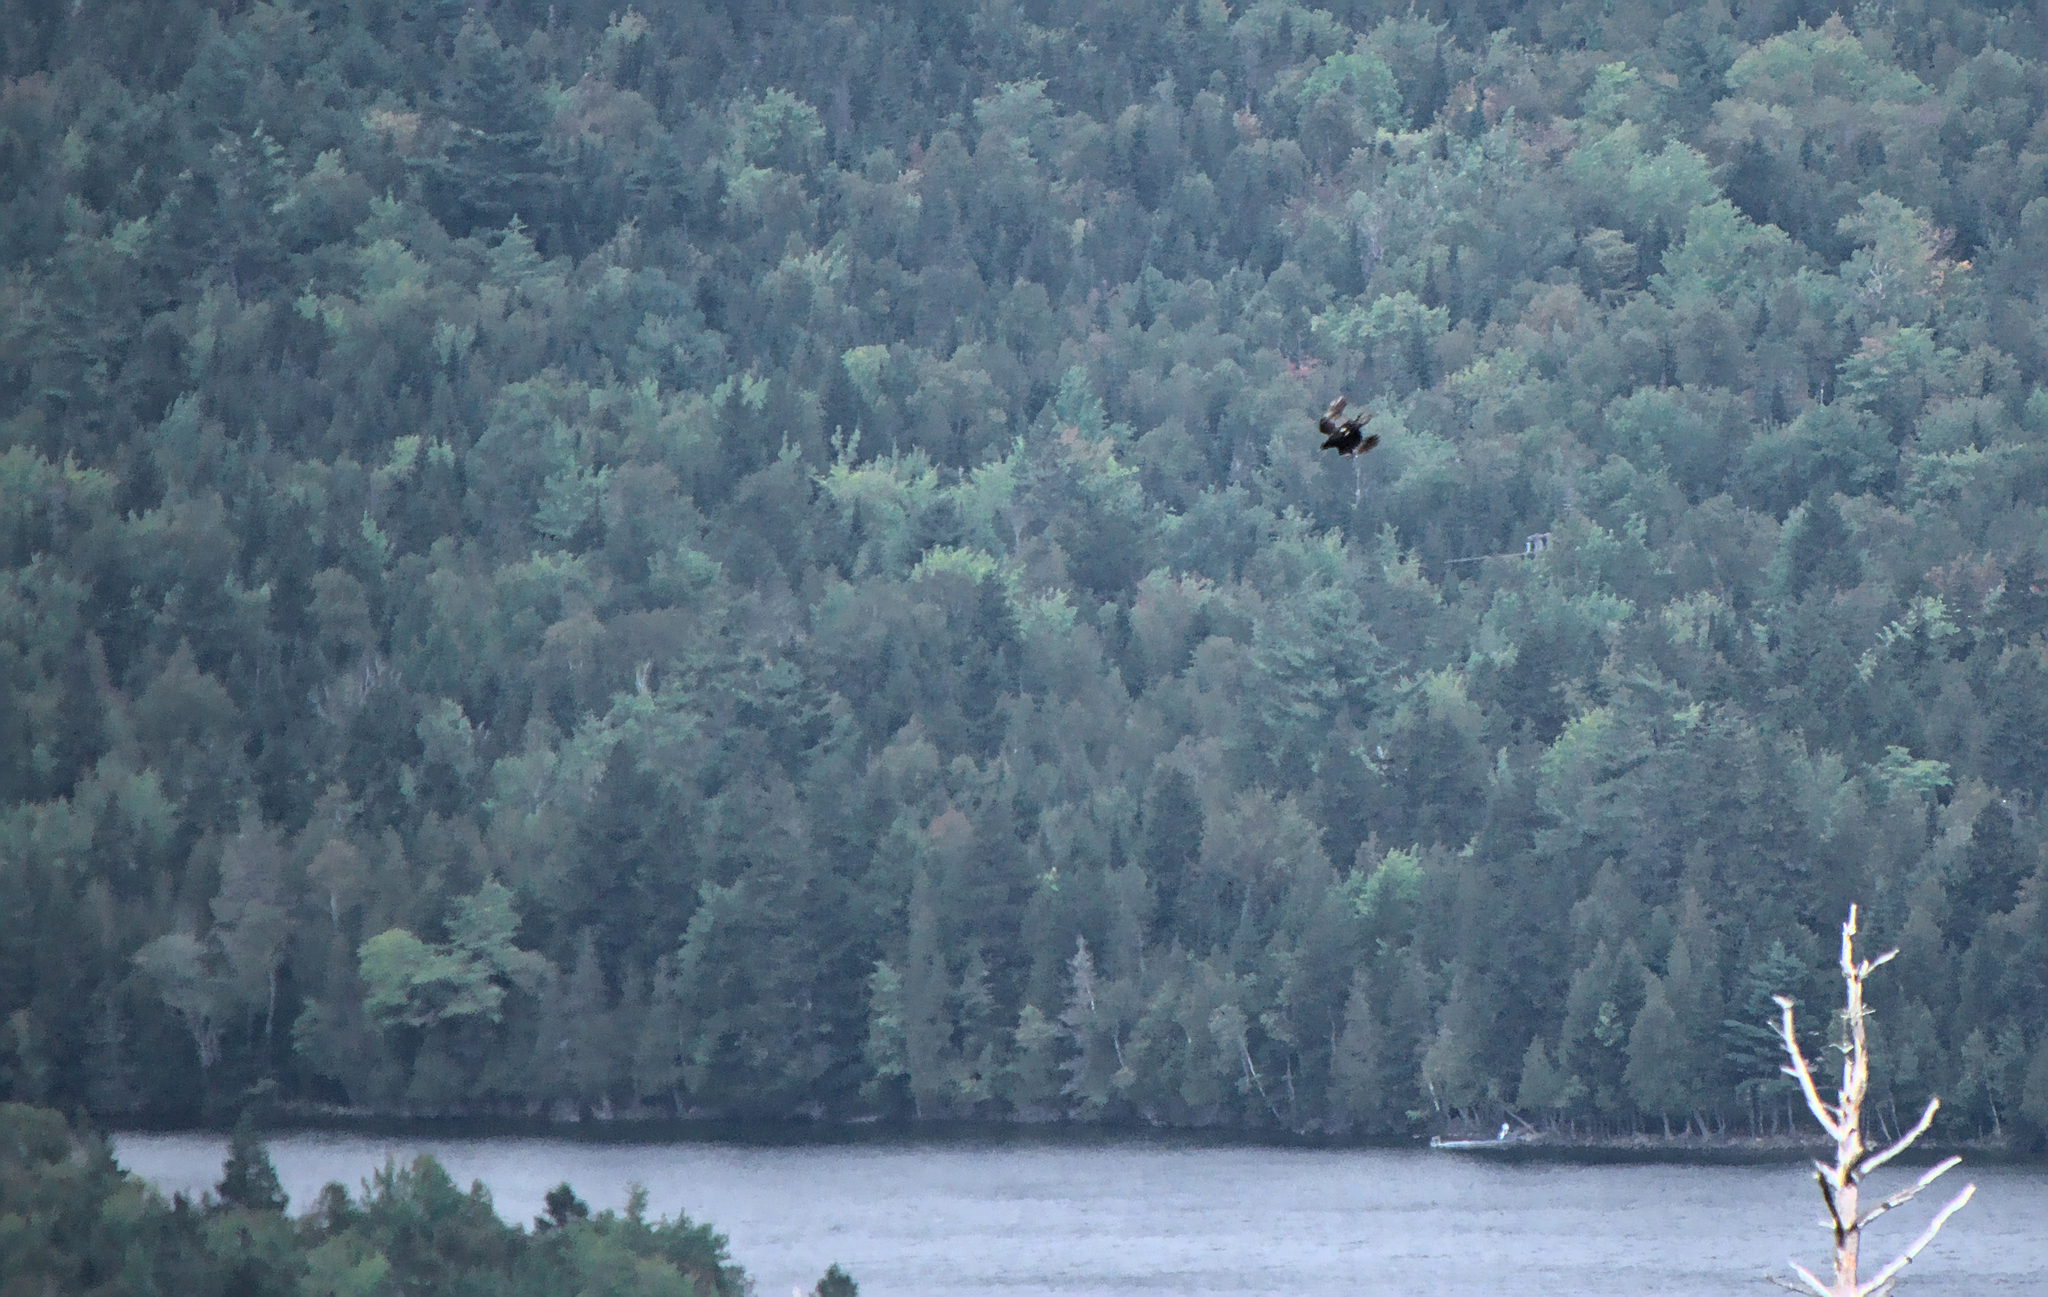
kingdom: Animalia
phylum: Chordata
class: Aves
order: Accipitriformes
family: Accipitridae
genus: Haliaeetus
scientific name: Haliaeetus leucocephalus
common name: Bald eagle
